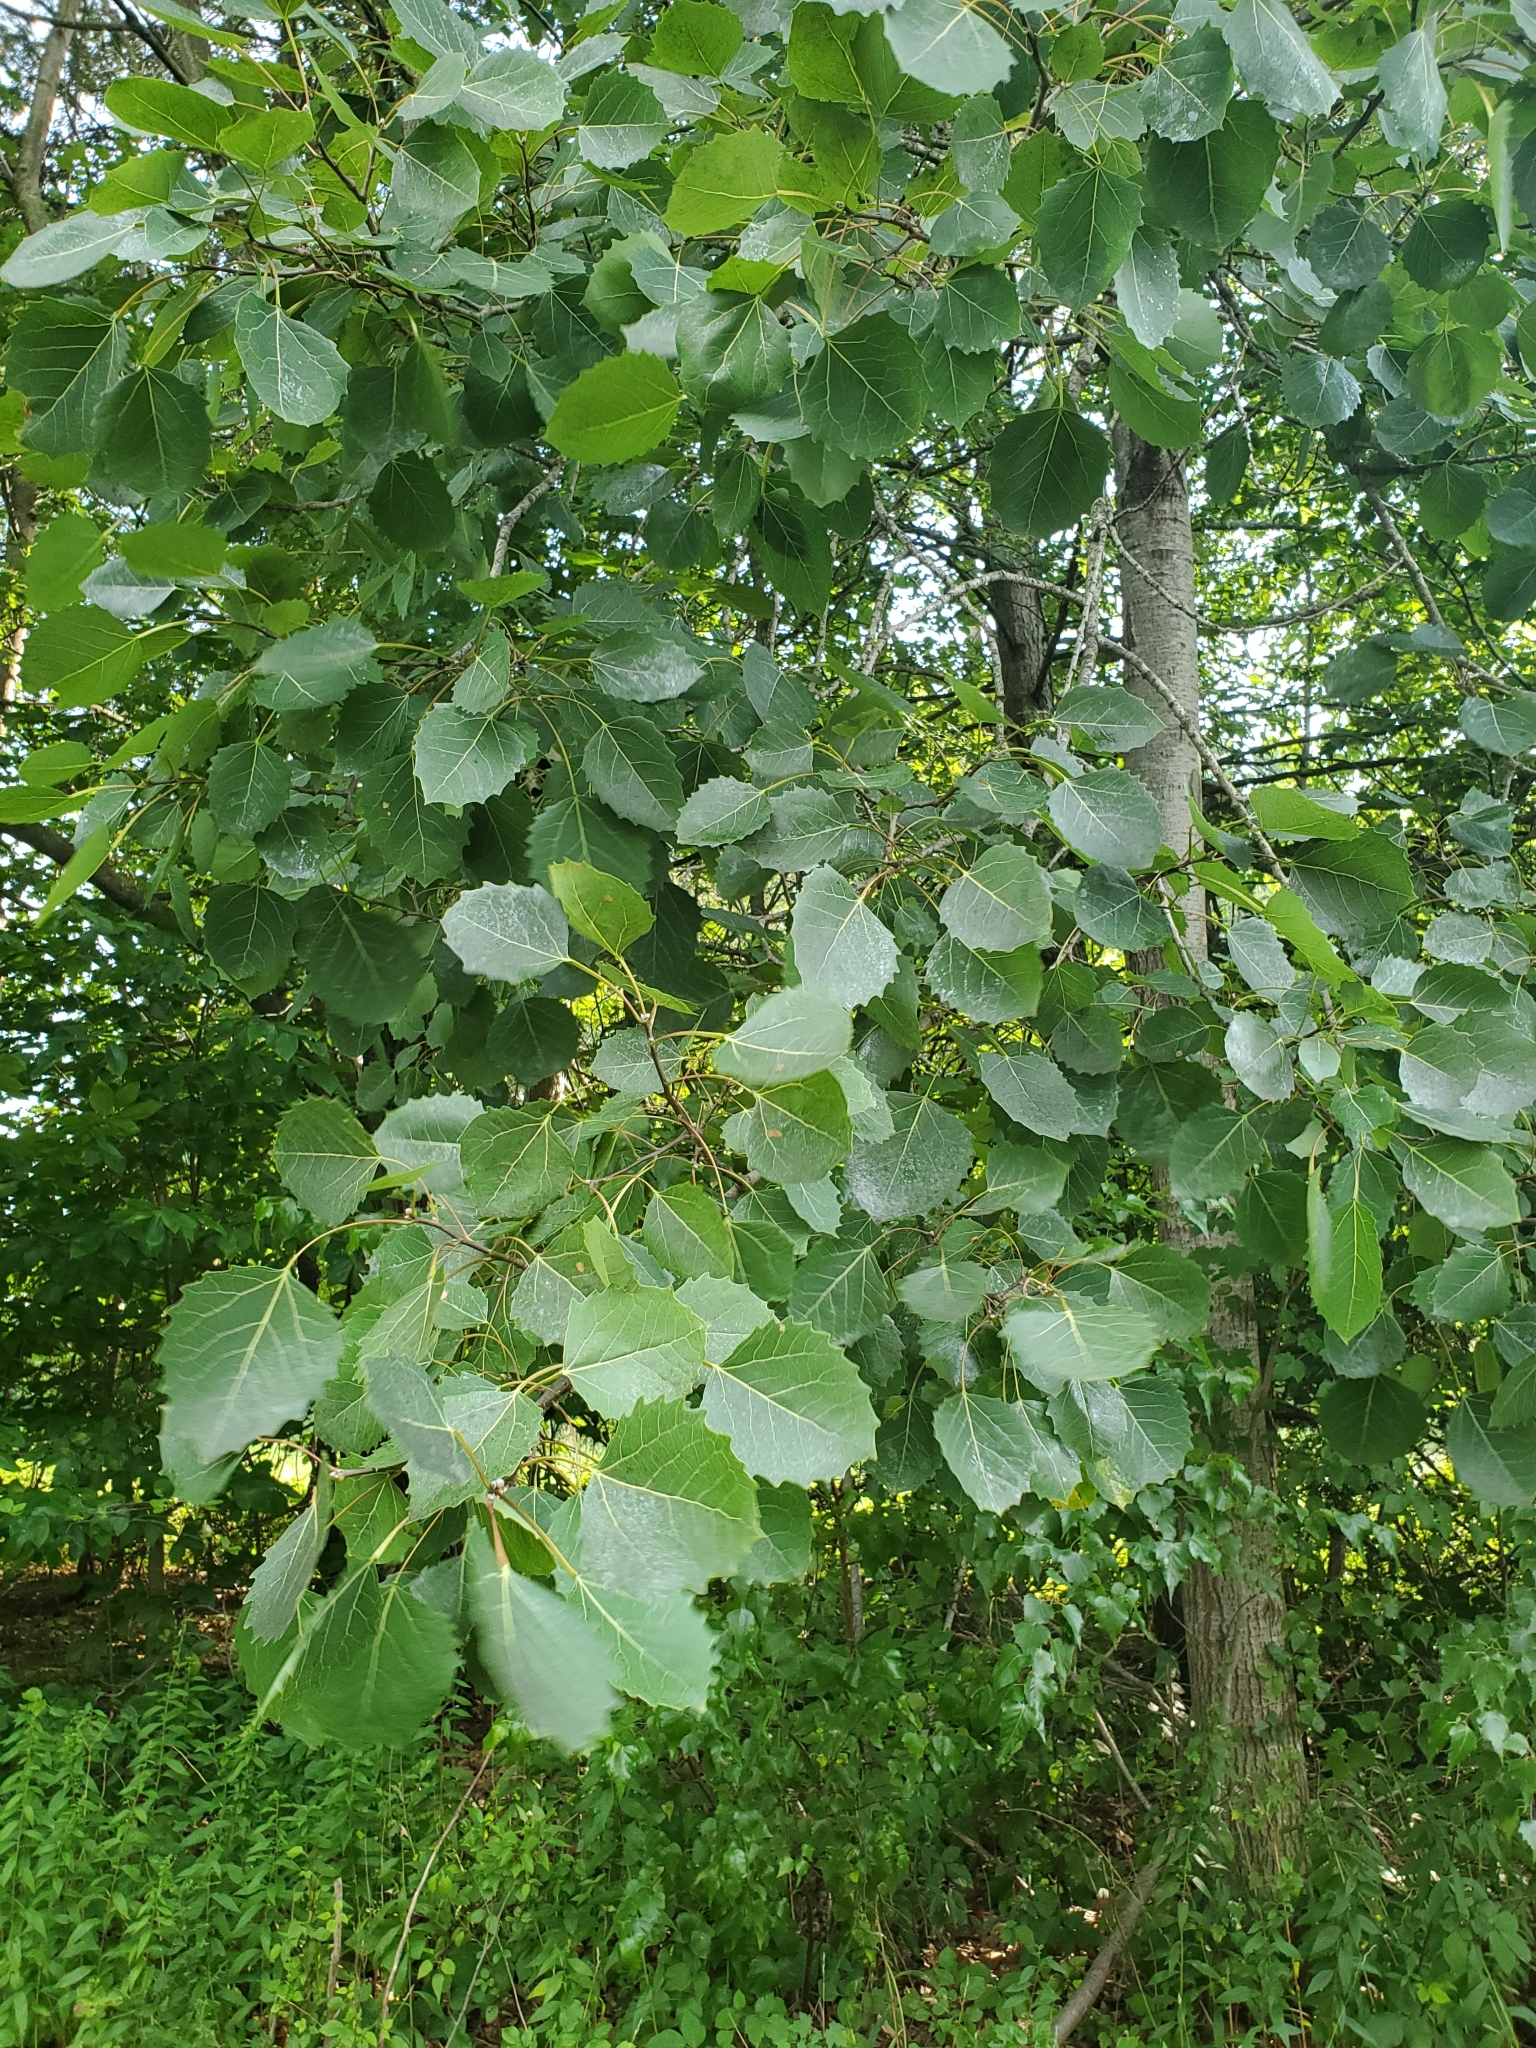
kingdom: Plantae
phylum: Tracheophyta
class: Magnoliopsida
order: Malpighiales
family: Salicaceae
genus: Populus
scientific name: Populus grandidentata
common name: Bigtooth aspen
